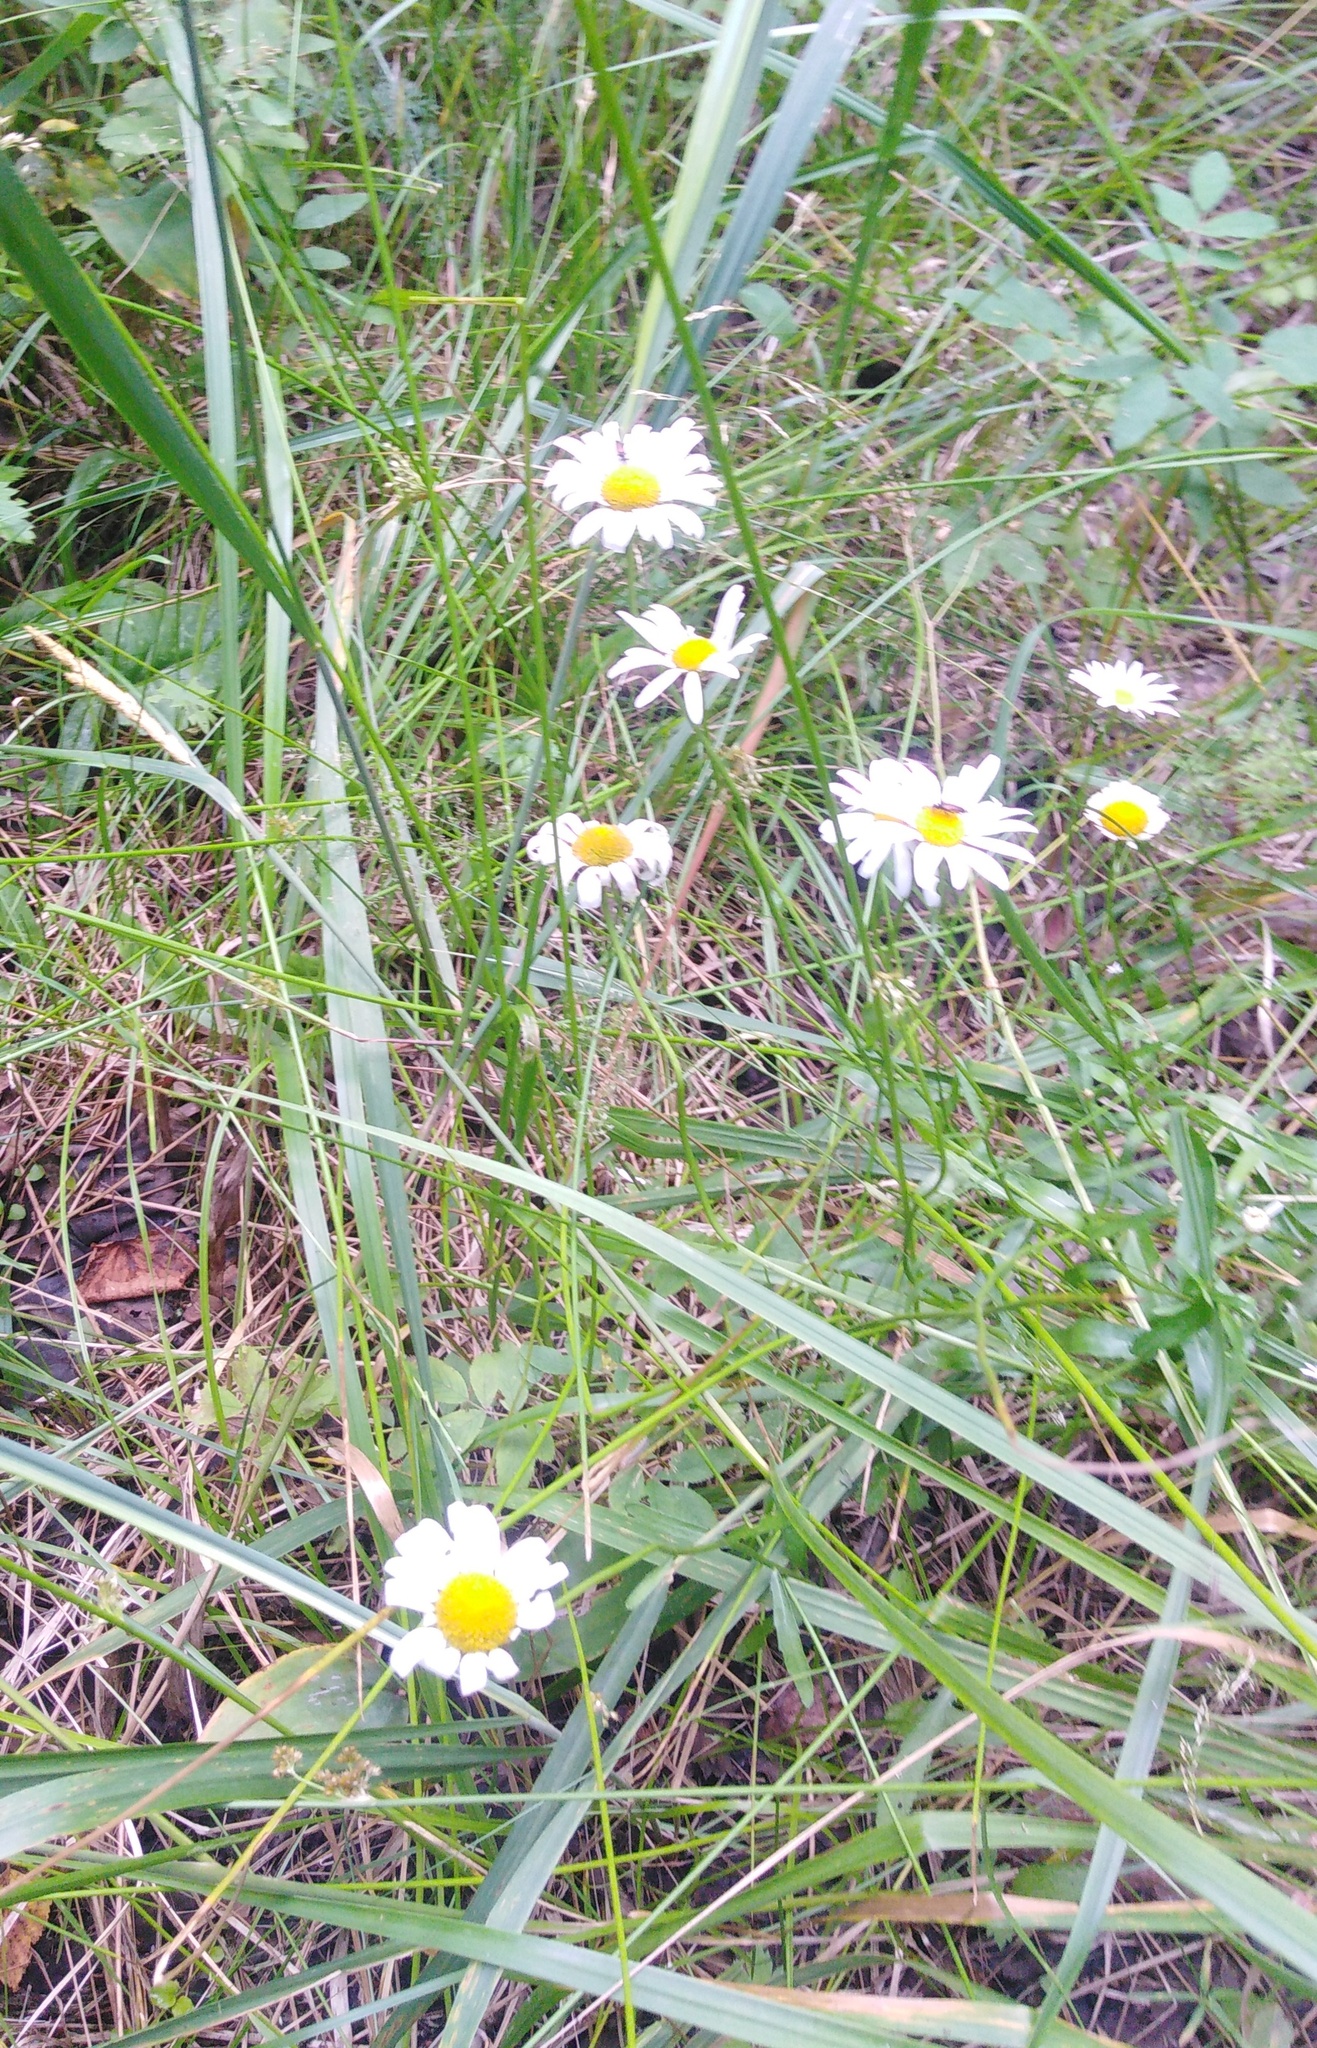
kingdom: Plantae
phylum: Tracheophyta
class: Magnoliopsida
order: Asterales
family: Asteraceae
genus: Leucanthemum
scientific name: Leucanthemum vulgare
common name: Oxeye daisy
